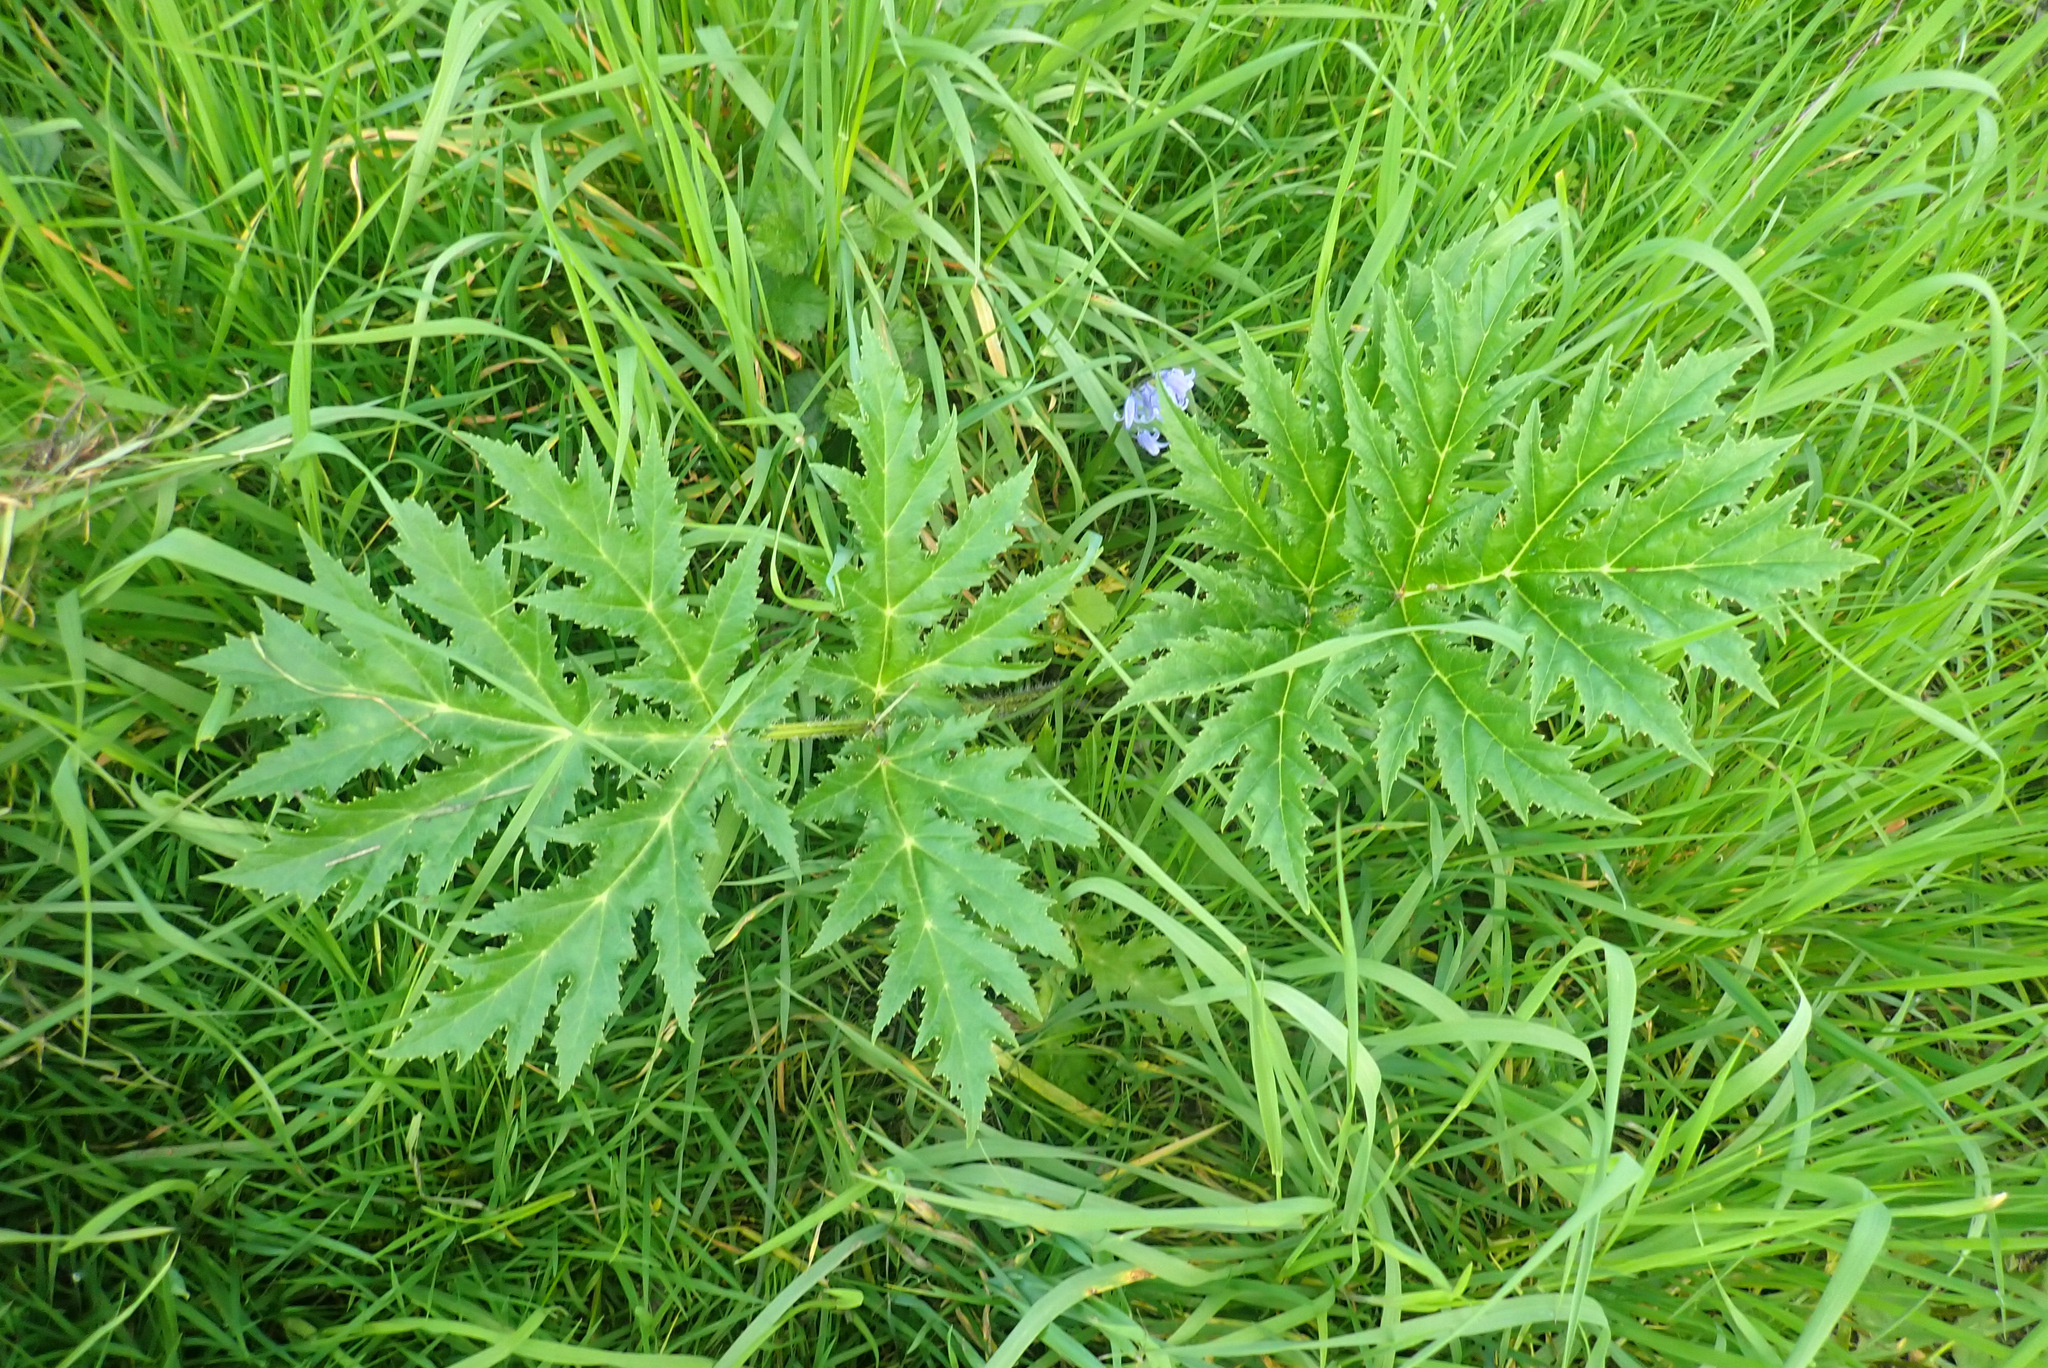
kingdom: Plantae
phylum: Tracheophyta
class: Magnoliopsida
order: Apiales
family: Apiaceae
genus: Heracleum
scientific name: Heracleum mantegazzianum
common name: Giant hogweed
